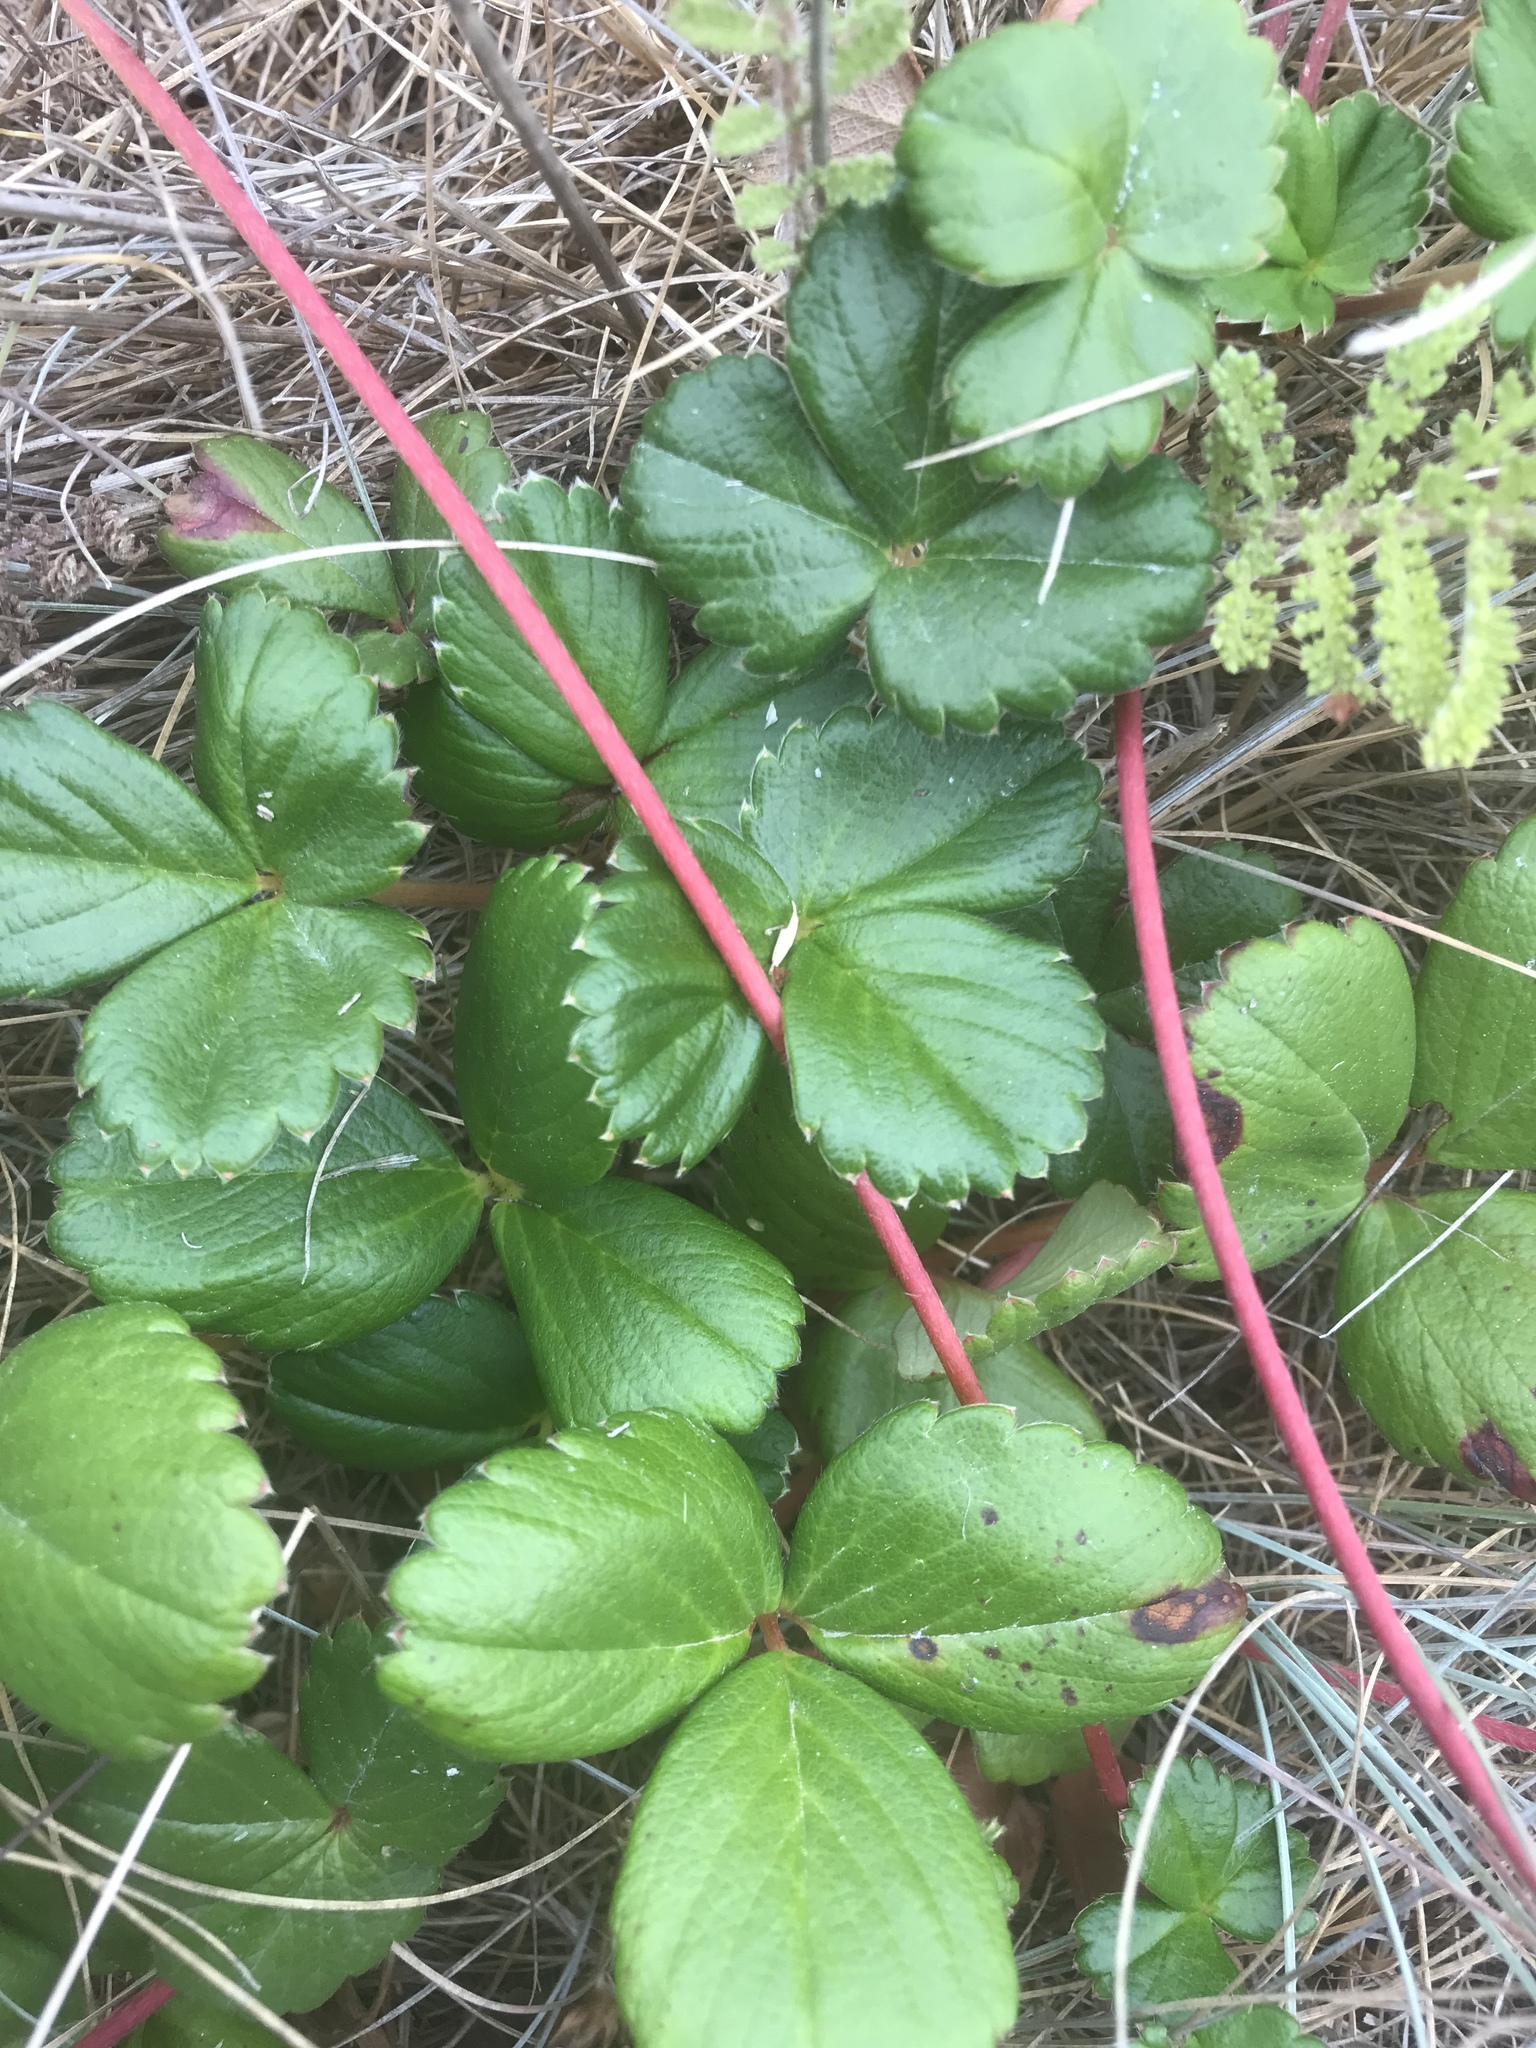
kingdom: Plantae
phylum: Tracheophyta
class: Magnoliopsida
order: Rosales
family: Rosaceae
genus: Fragaria
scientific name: Fragaria chiloensis
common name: Beach strawberry
